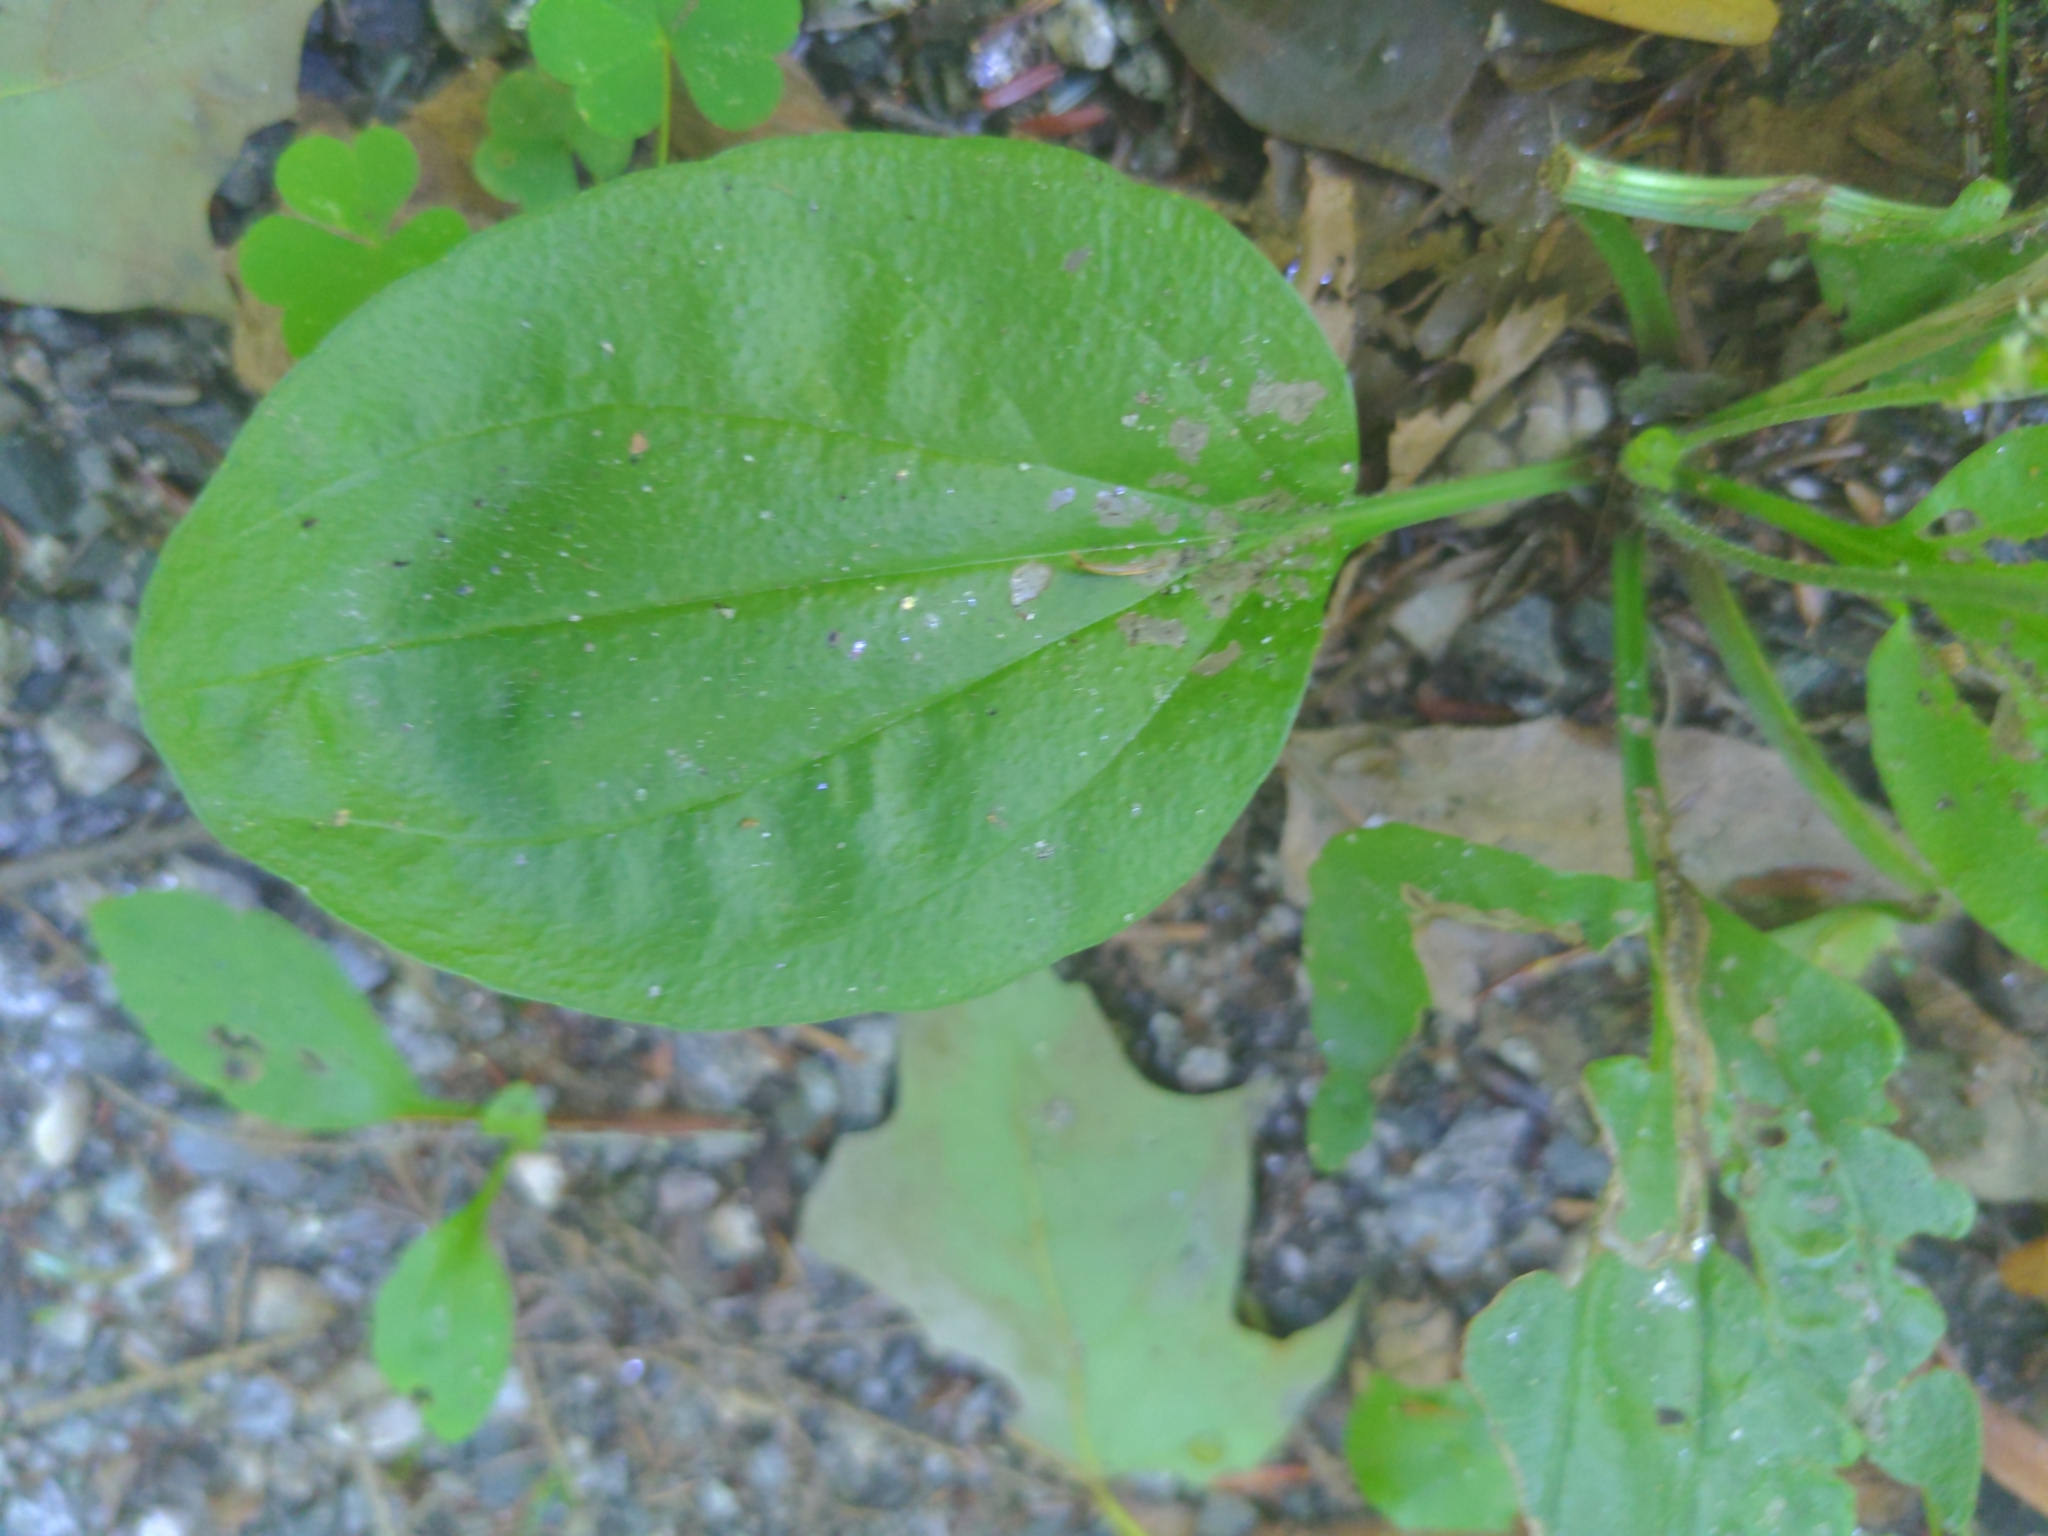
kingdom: Plantae
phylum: Tracheophyta
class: Magnoliopsida
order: Lamiales
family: Plantaginaceae
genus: Plantago
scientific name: Plantago rugelii
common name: American plantain
